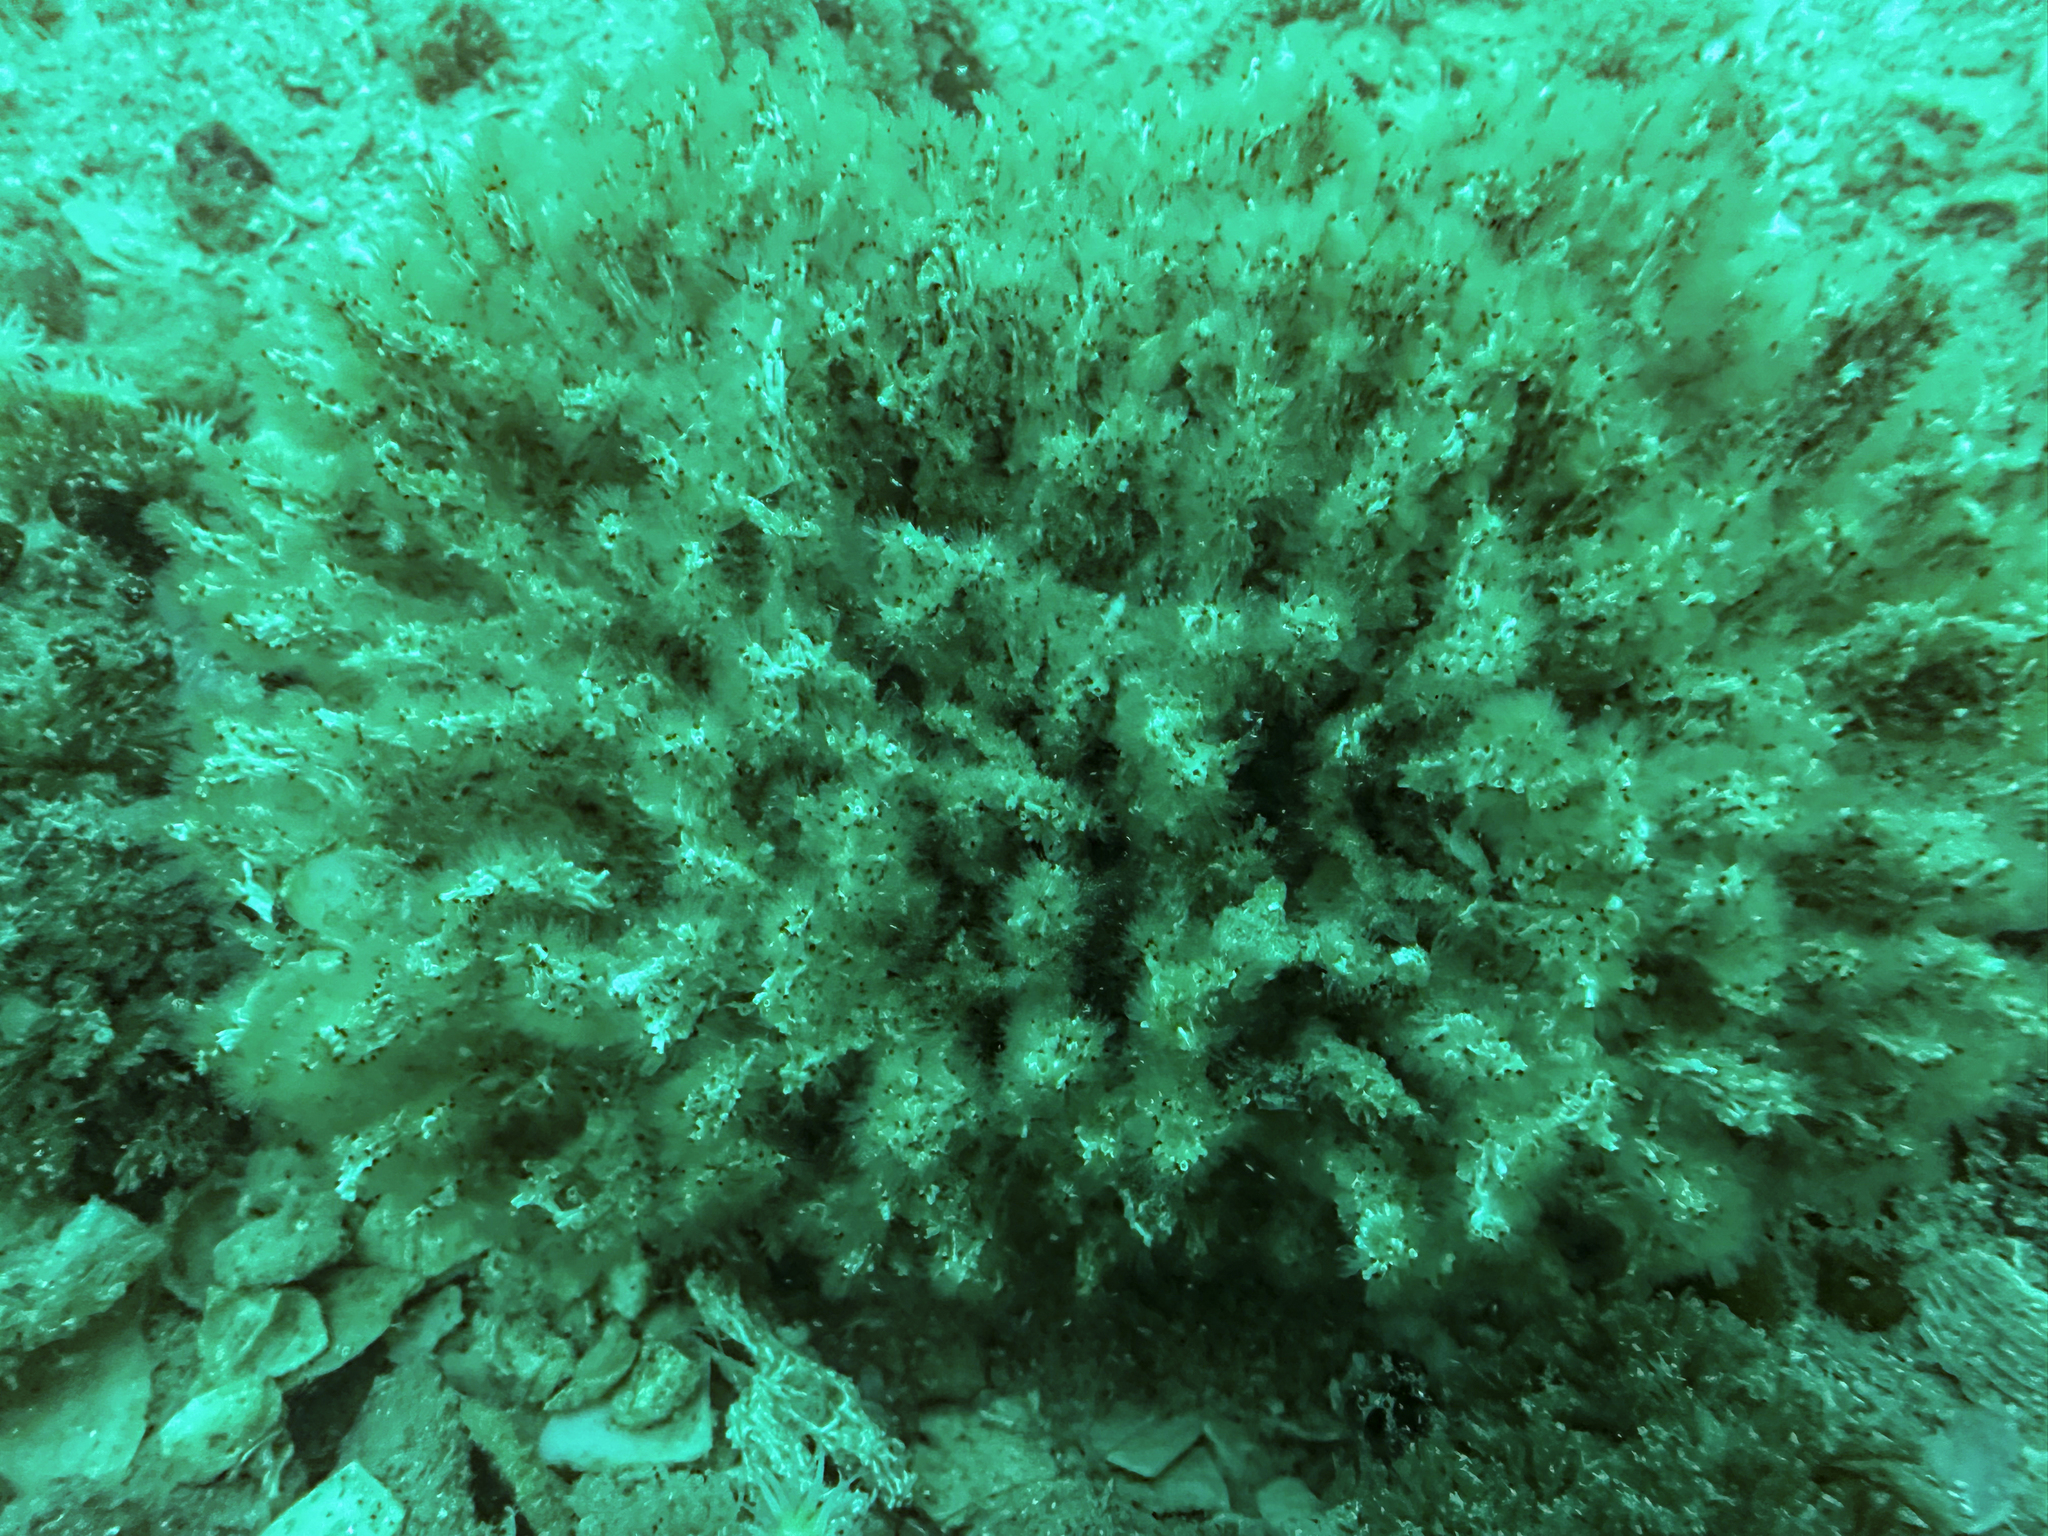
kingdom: Animalia
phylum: Annelida
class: Polychaeta
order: Sabellida
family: Serpulidae
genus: Salmacina
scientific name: Salmacina australis
